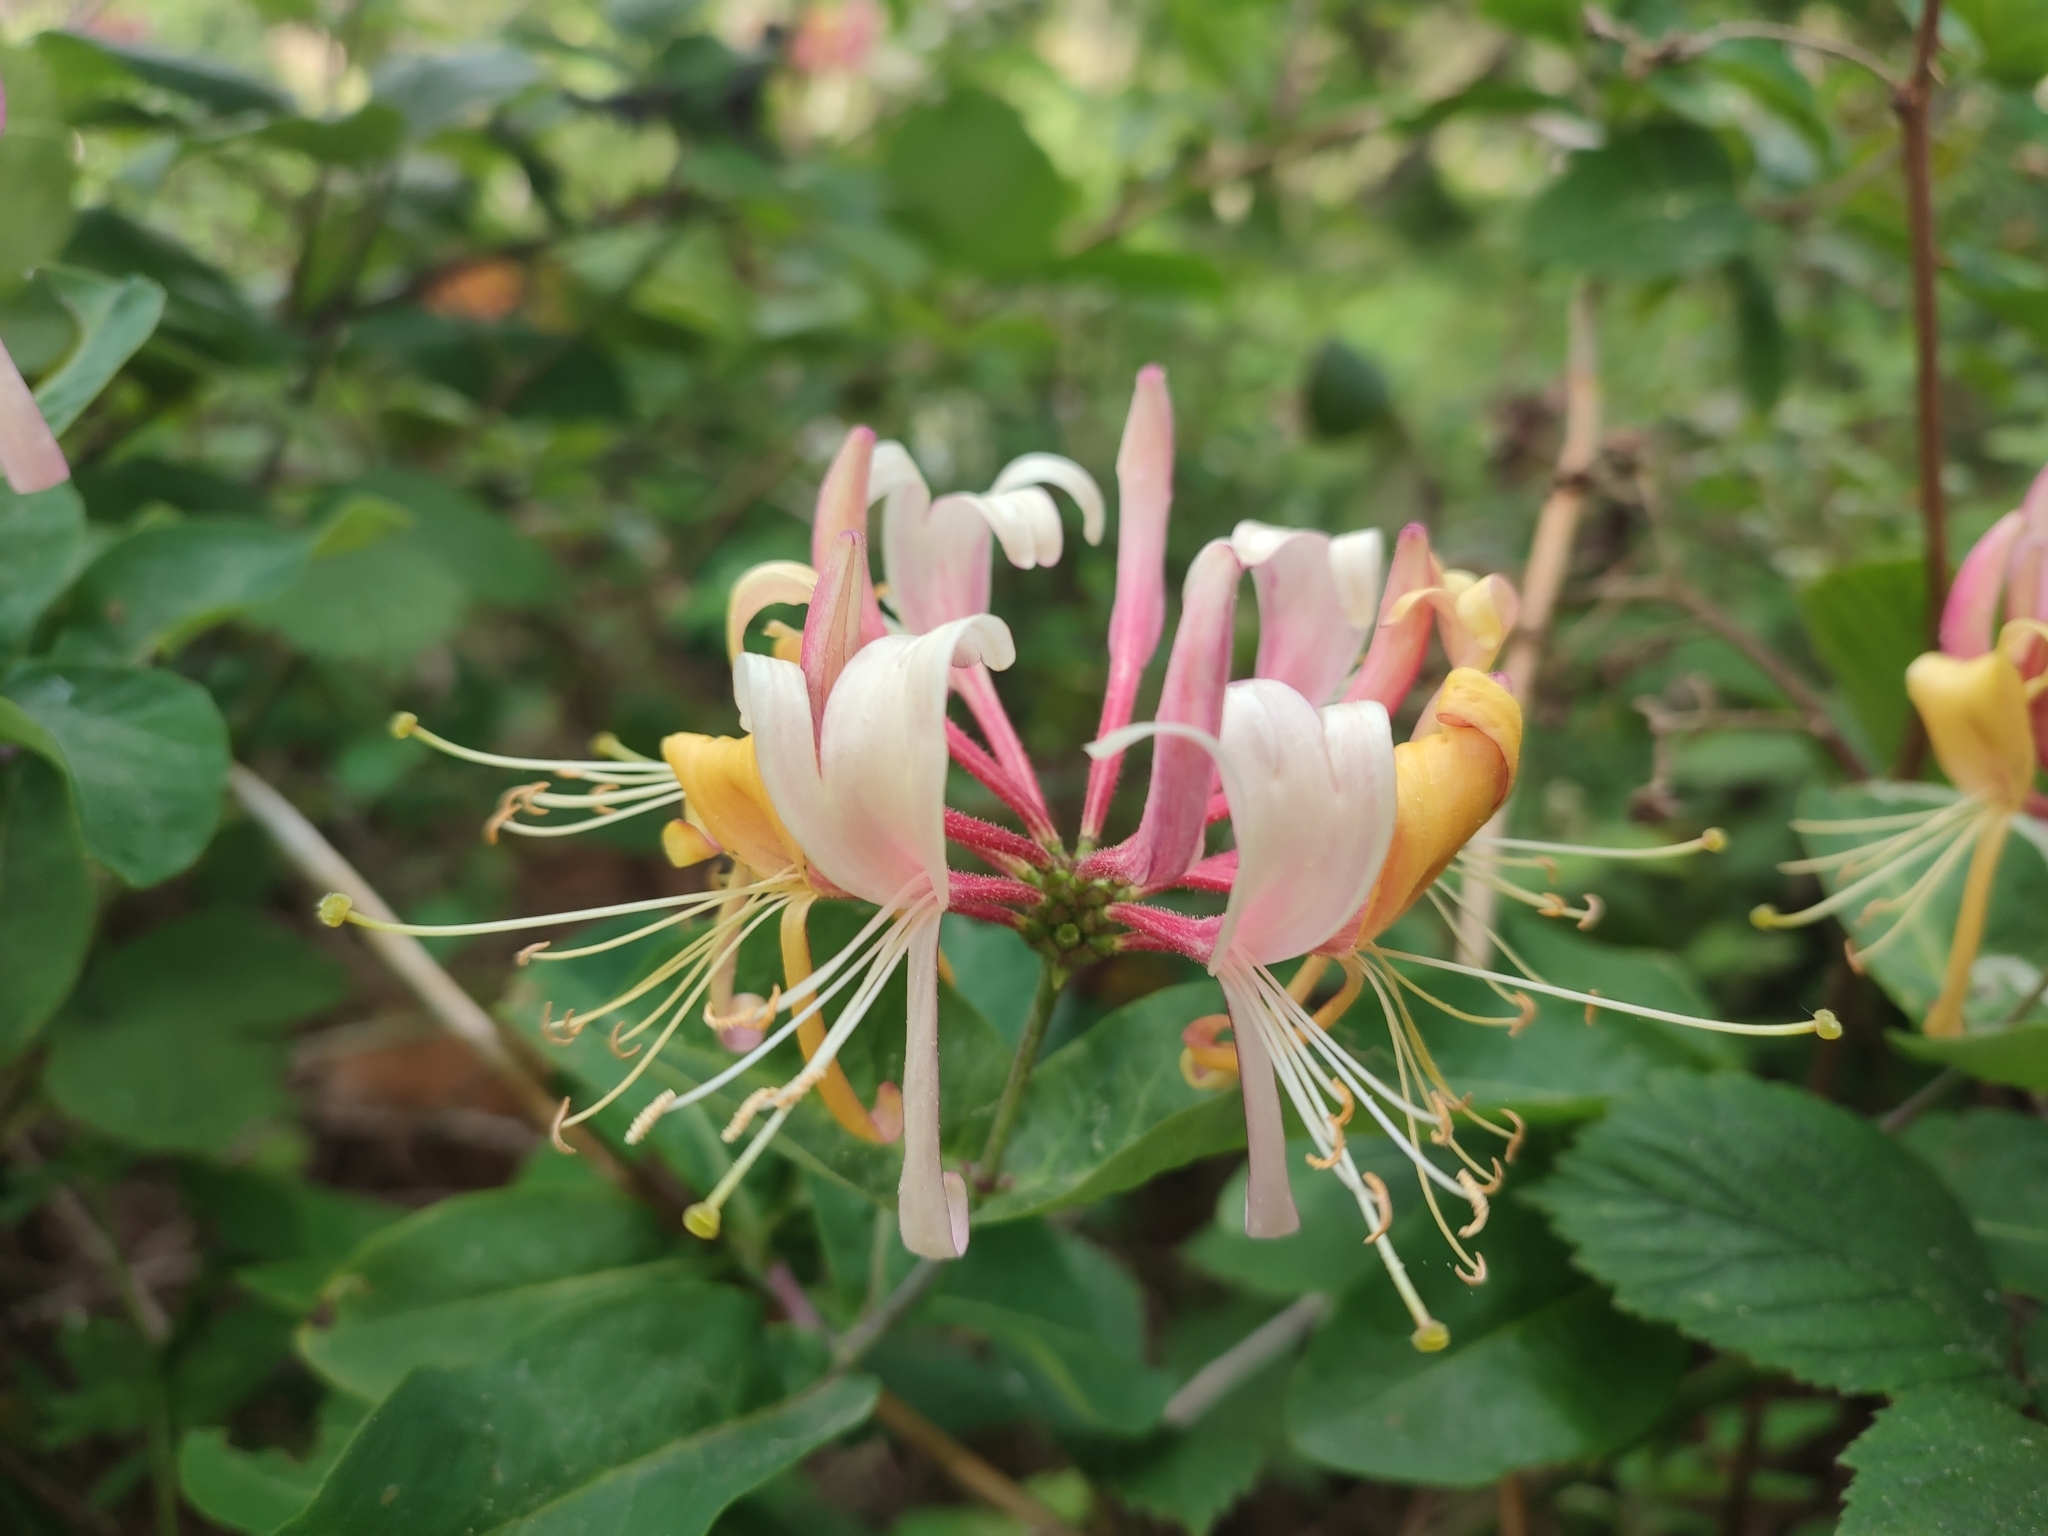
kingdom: Plantae
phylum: Tracheophyta
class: Magnoliopsida
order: Dipsacales
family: Caprifoliaceae
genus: Lonicera
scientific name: Lonicera periclymenum
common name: European honeysuckle
